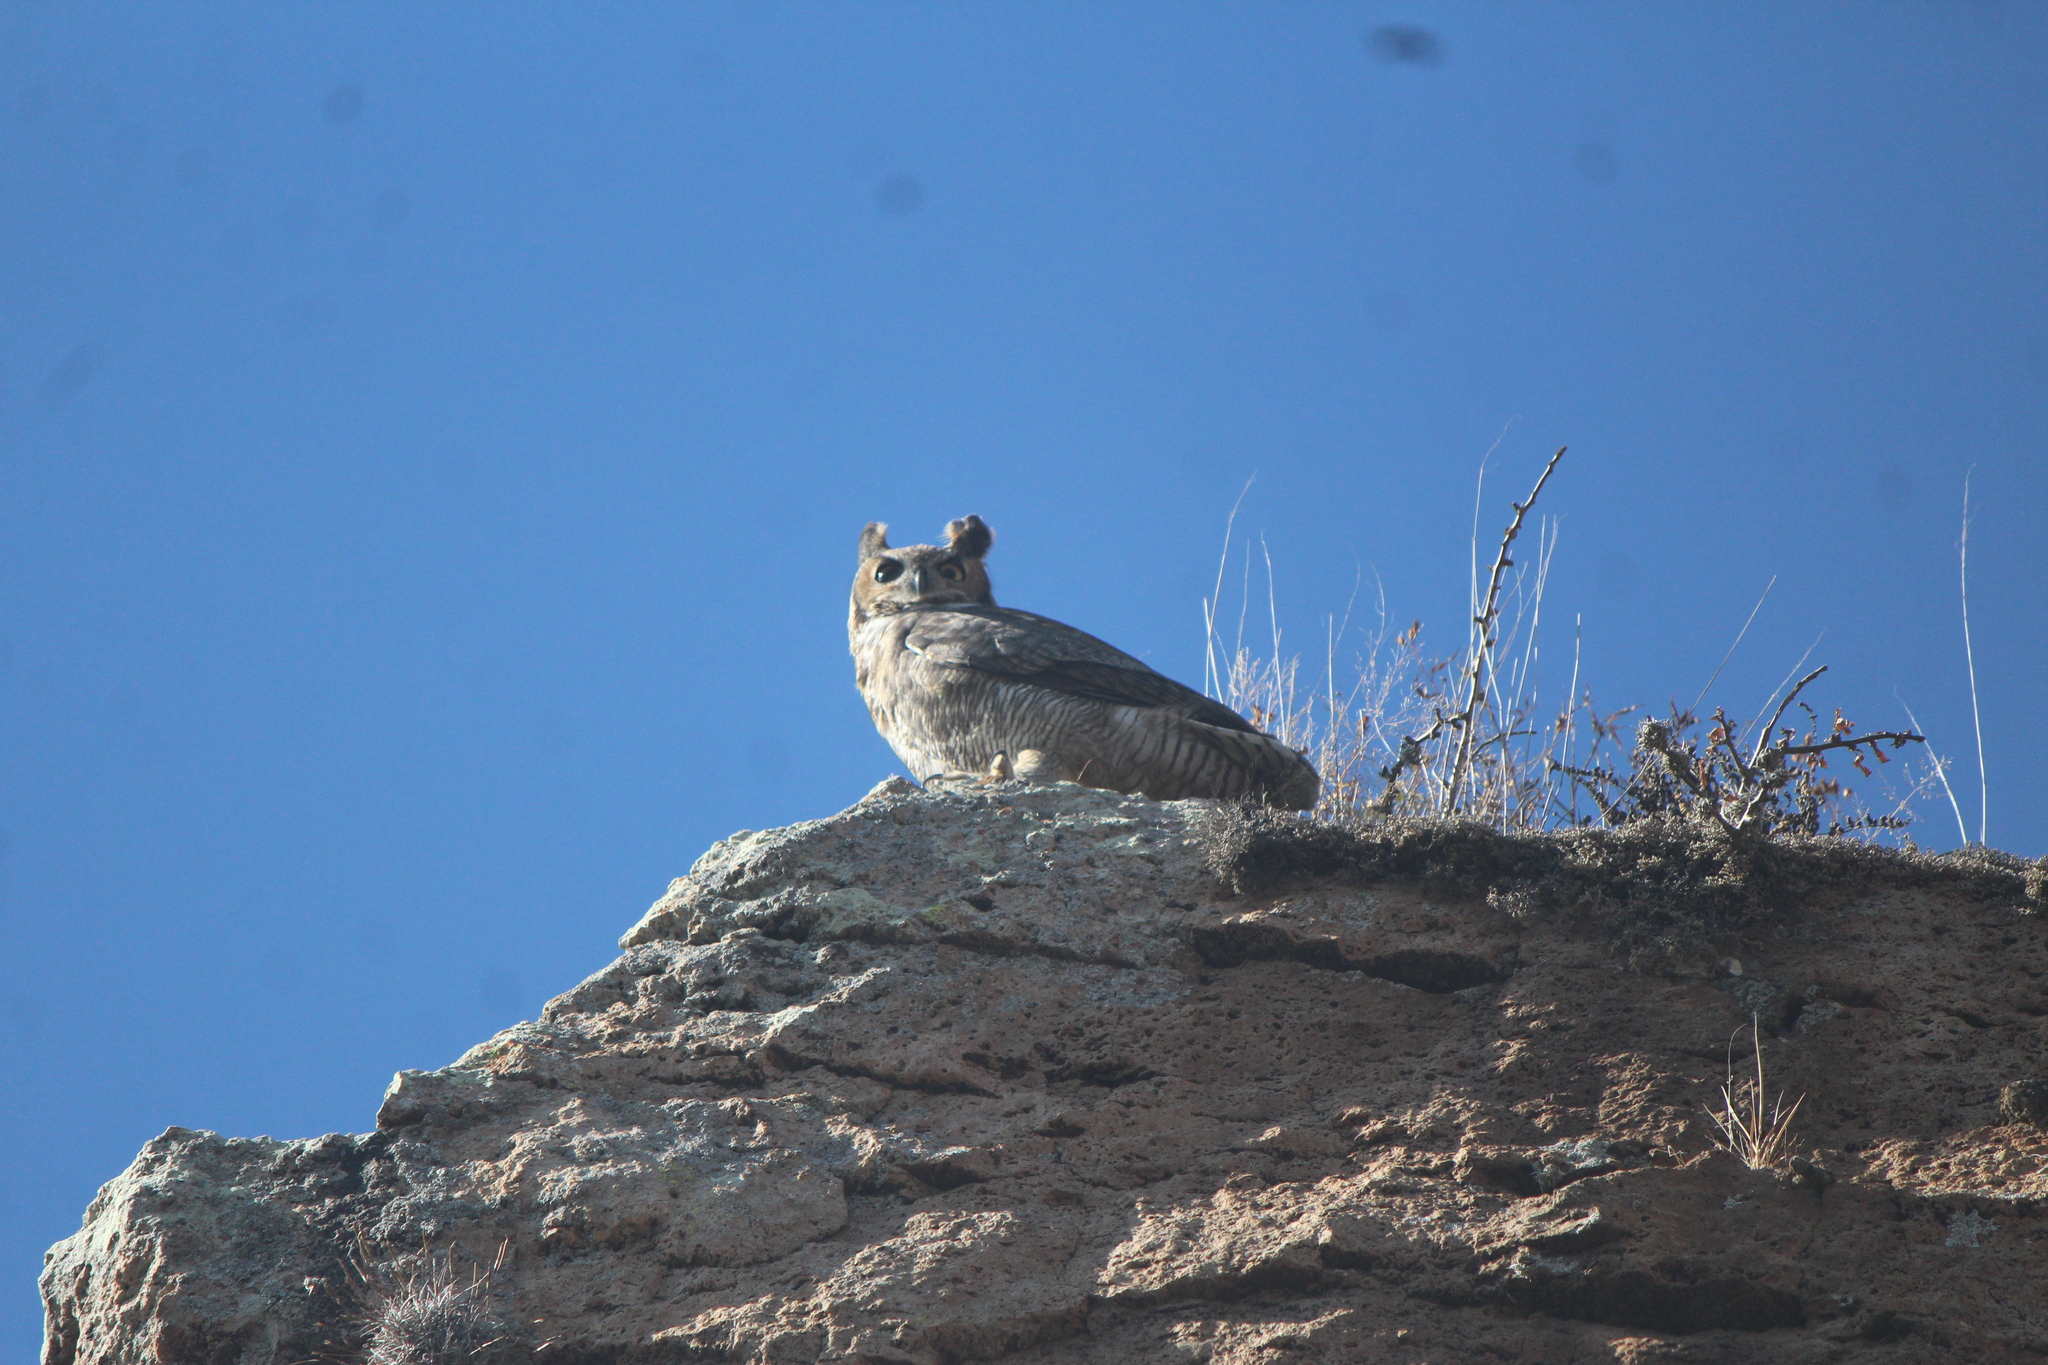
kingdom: Animalia
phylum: Chordata
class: Aves
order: Strigiformes
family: Strigidae
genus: Bubo
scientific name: Bubo virginianus
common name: Great horned owl
